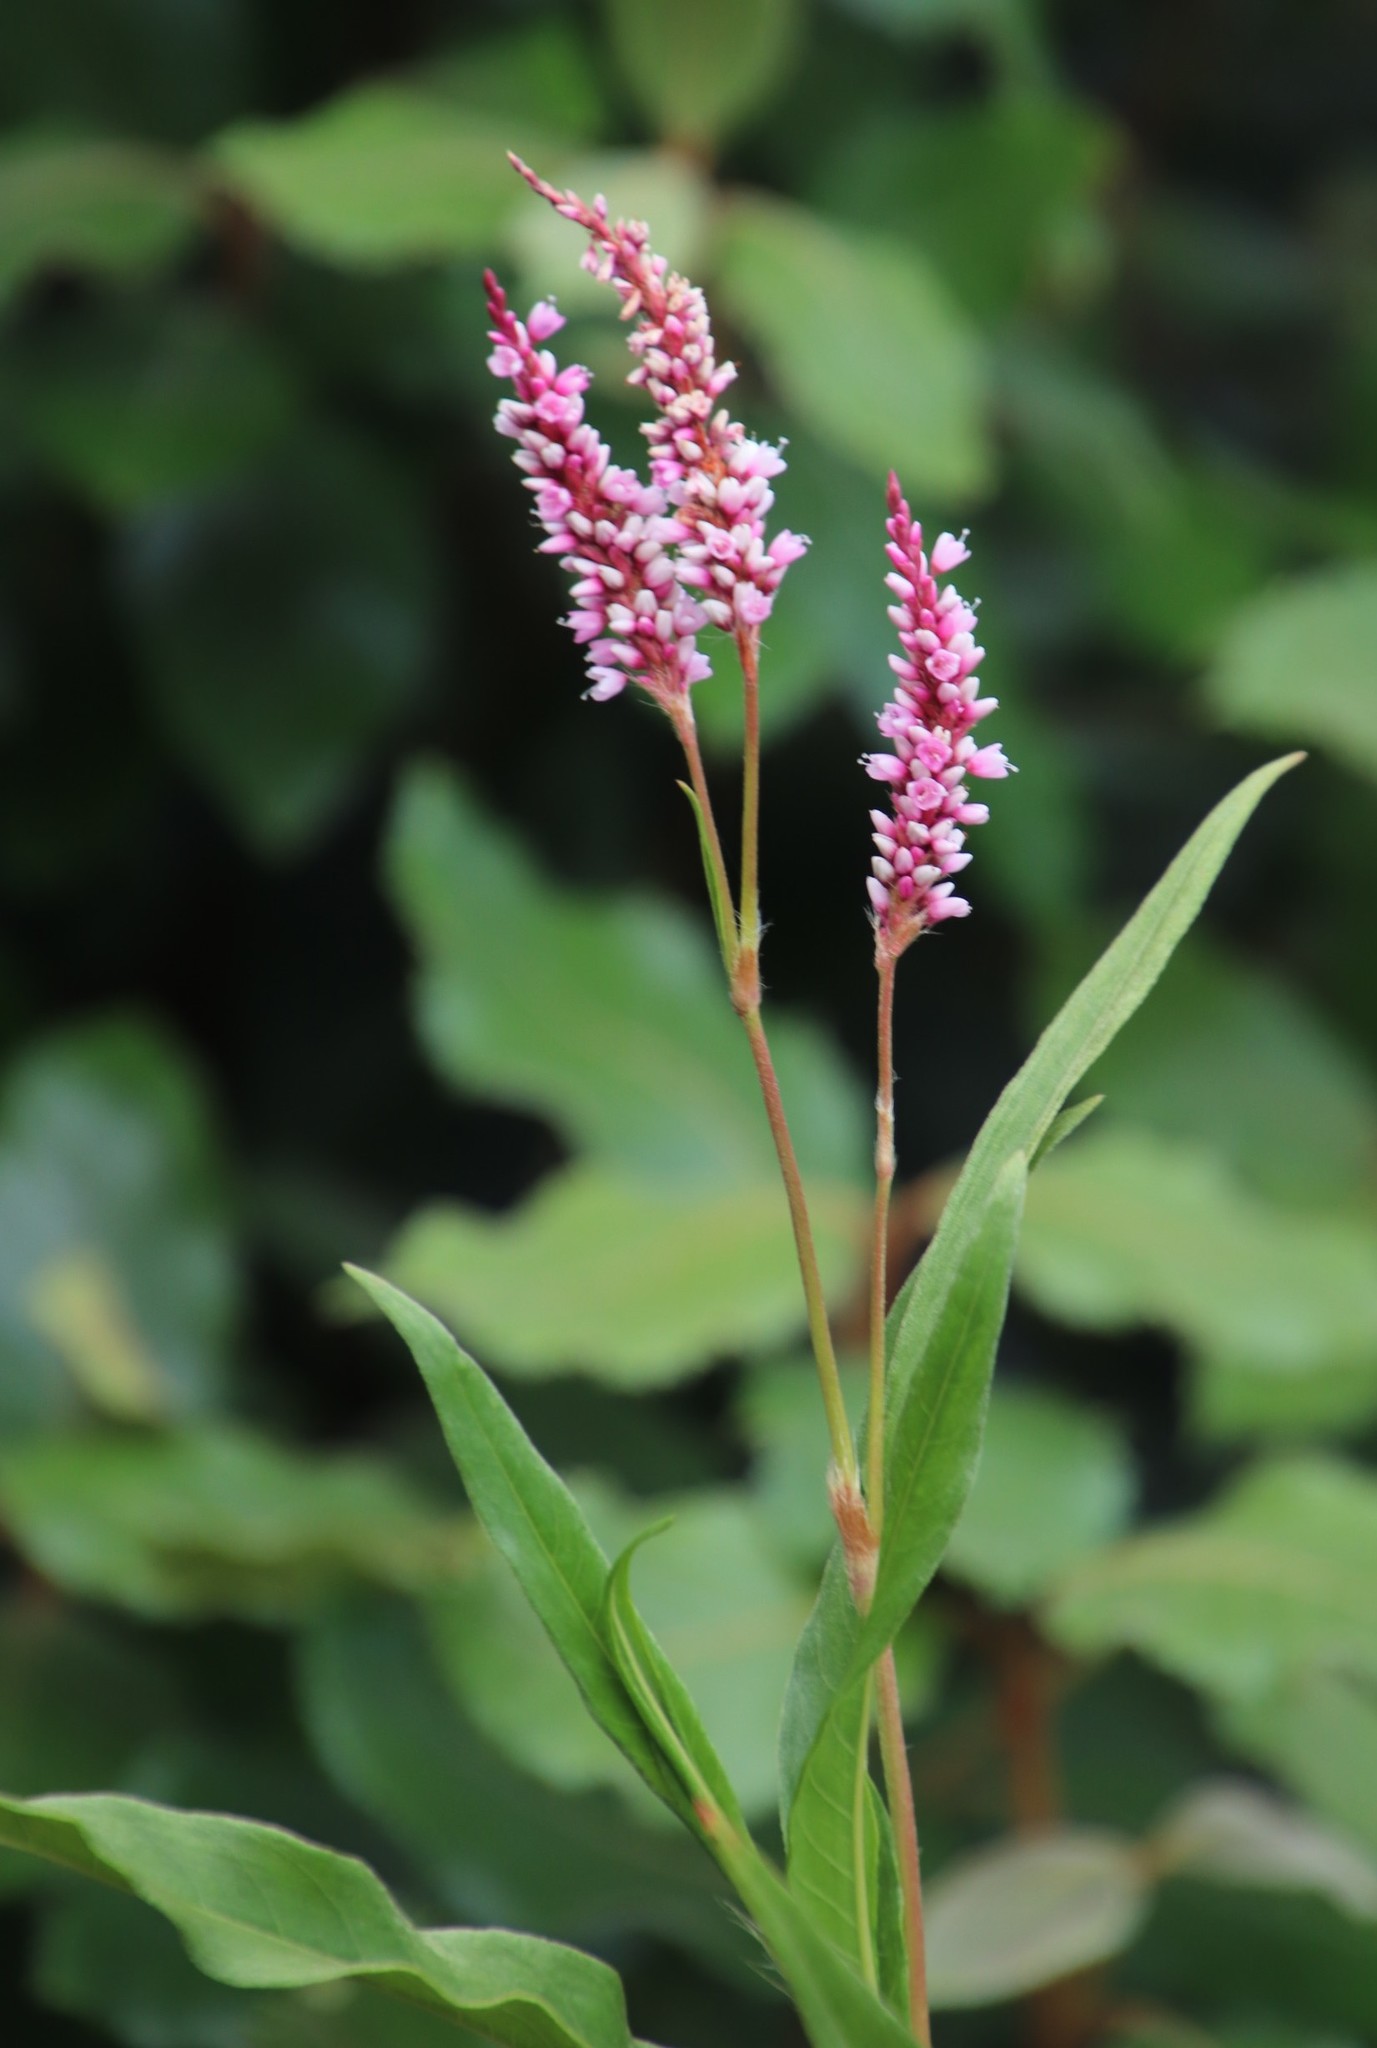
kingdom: Plantae
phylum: Tracheophyta
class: Magnoliopsida
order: Caryophyllales
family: Polygonaceae
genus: Persicaria
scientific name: Persicaria madagascariensis
